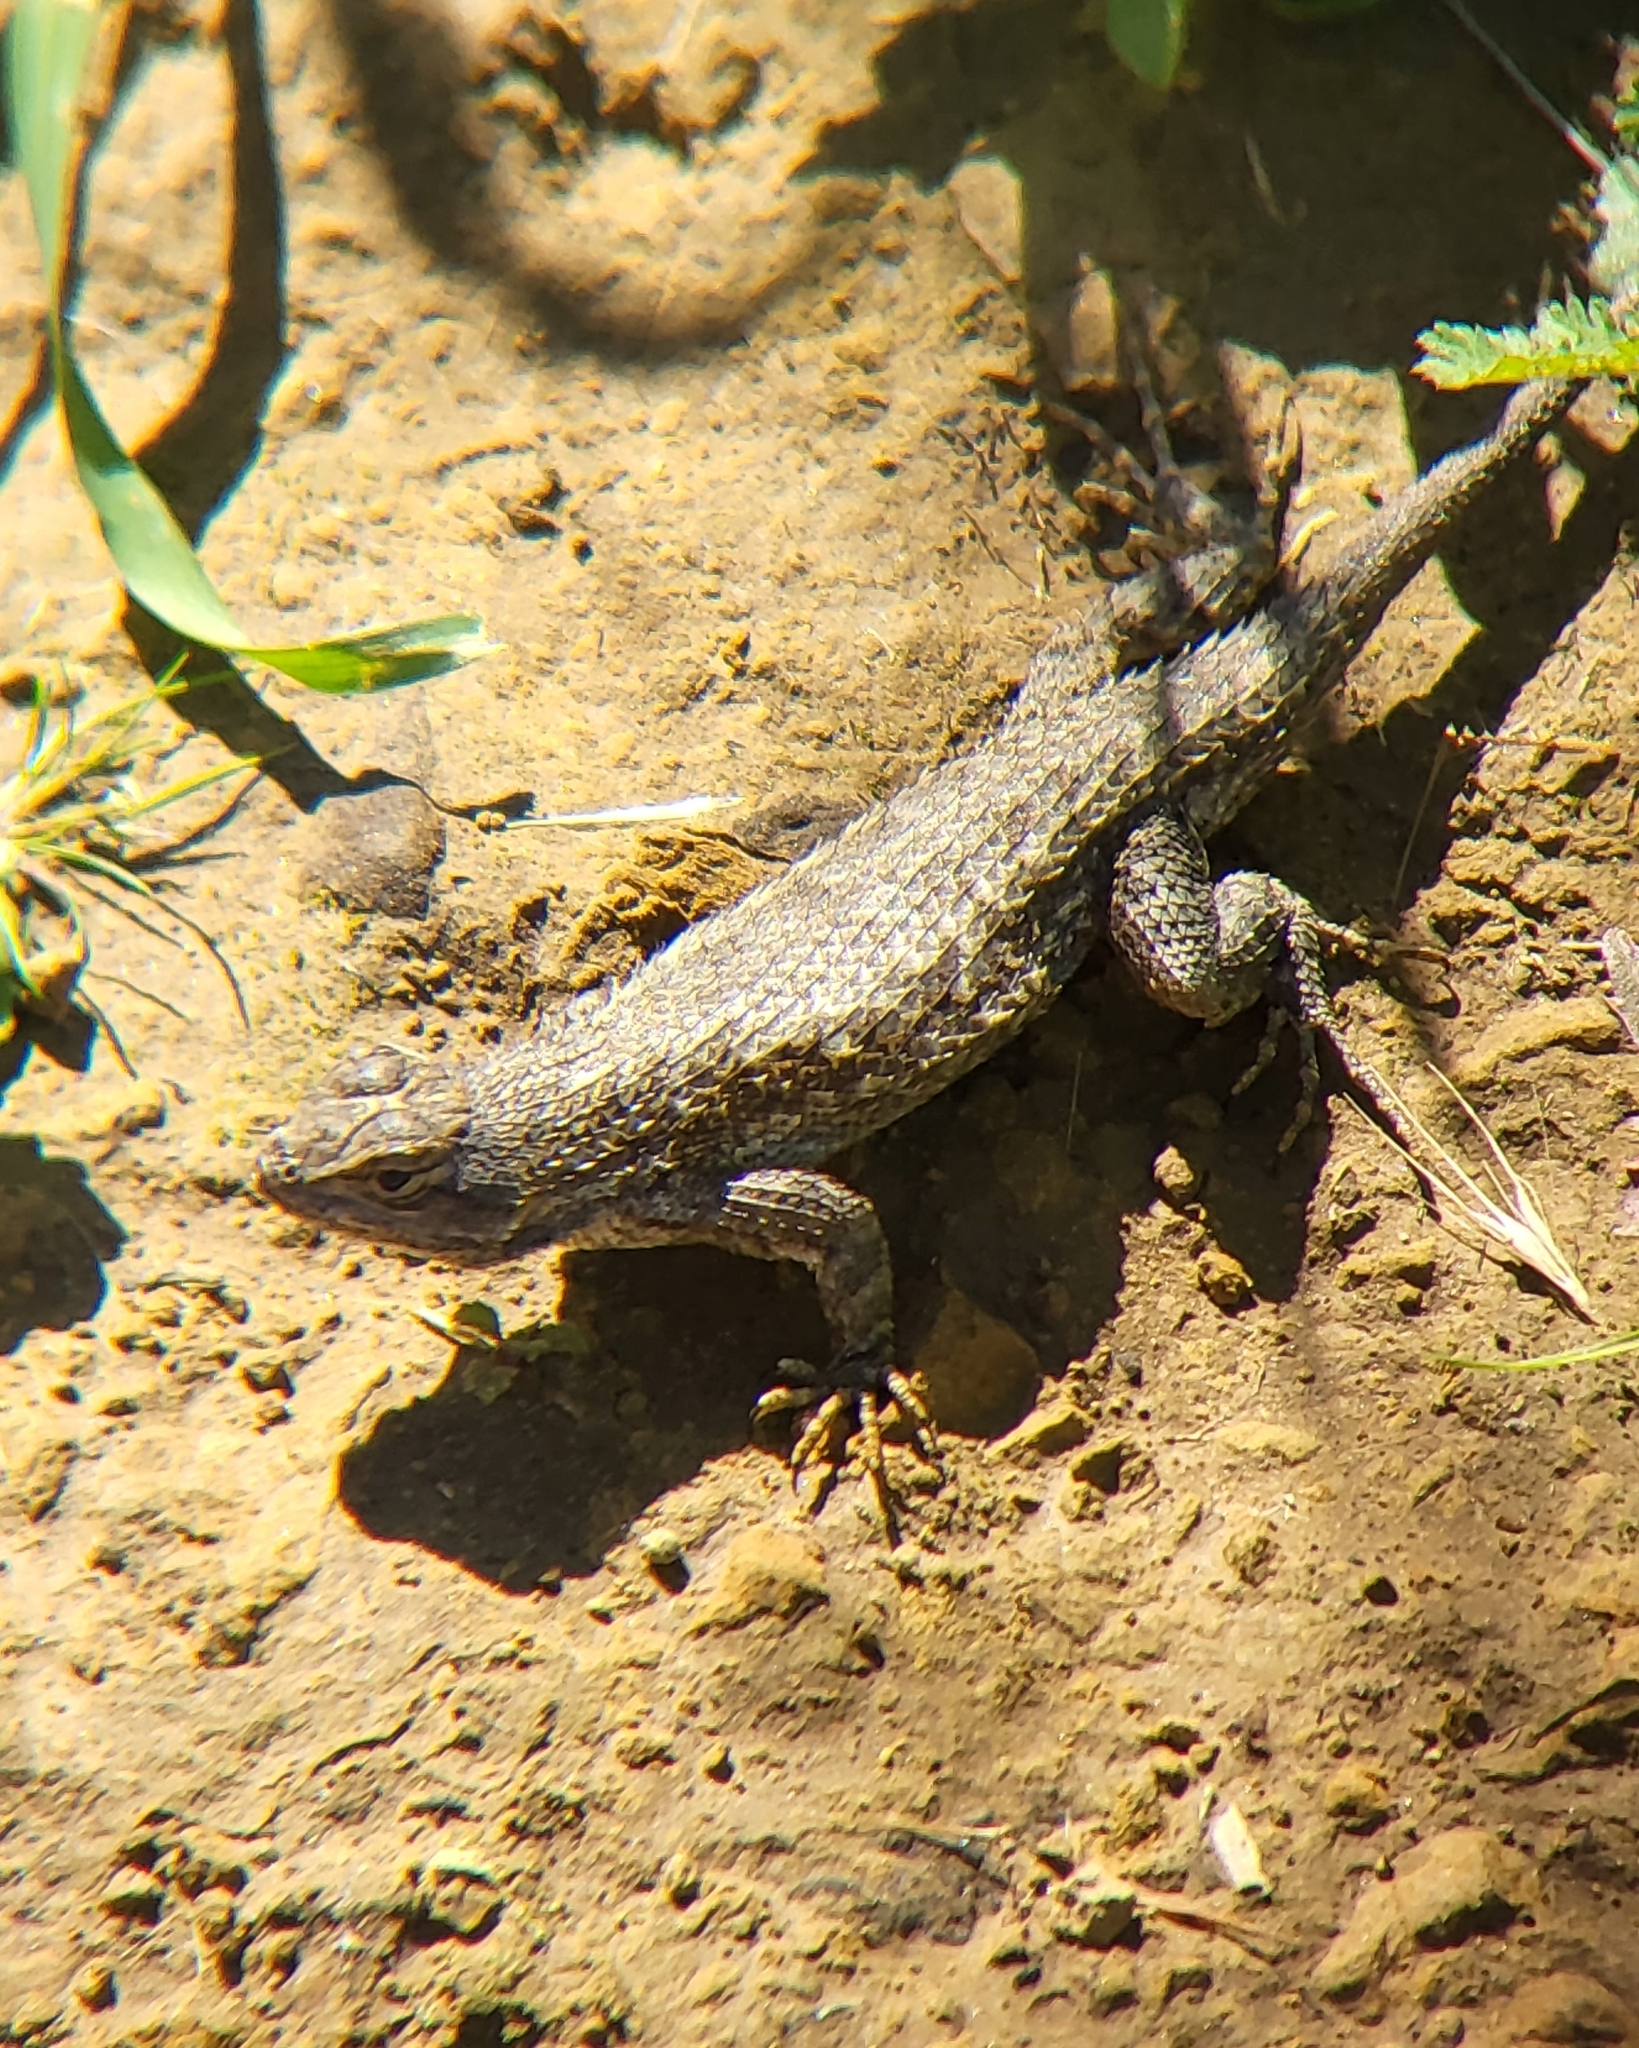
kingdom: Animalia
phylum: Chordata
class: Squamata
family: Phrynosomatidae
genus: Sceloporus
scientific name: Sceloporus occidentalis
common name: Western fence lizard
